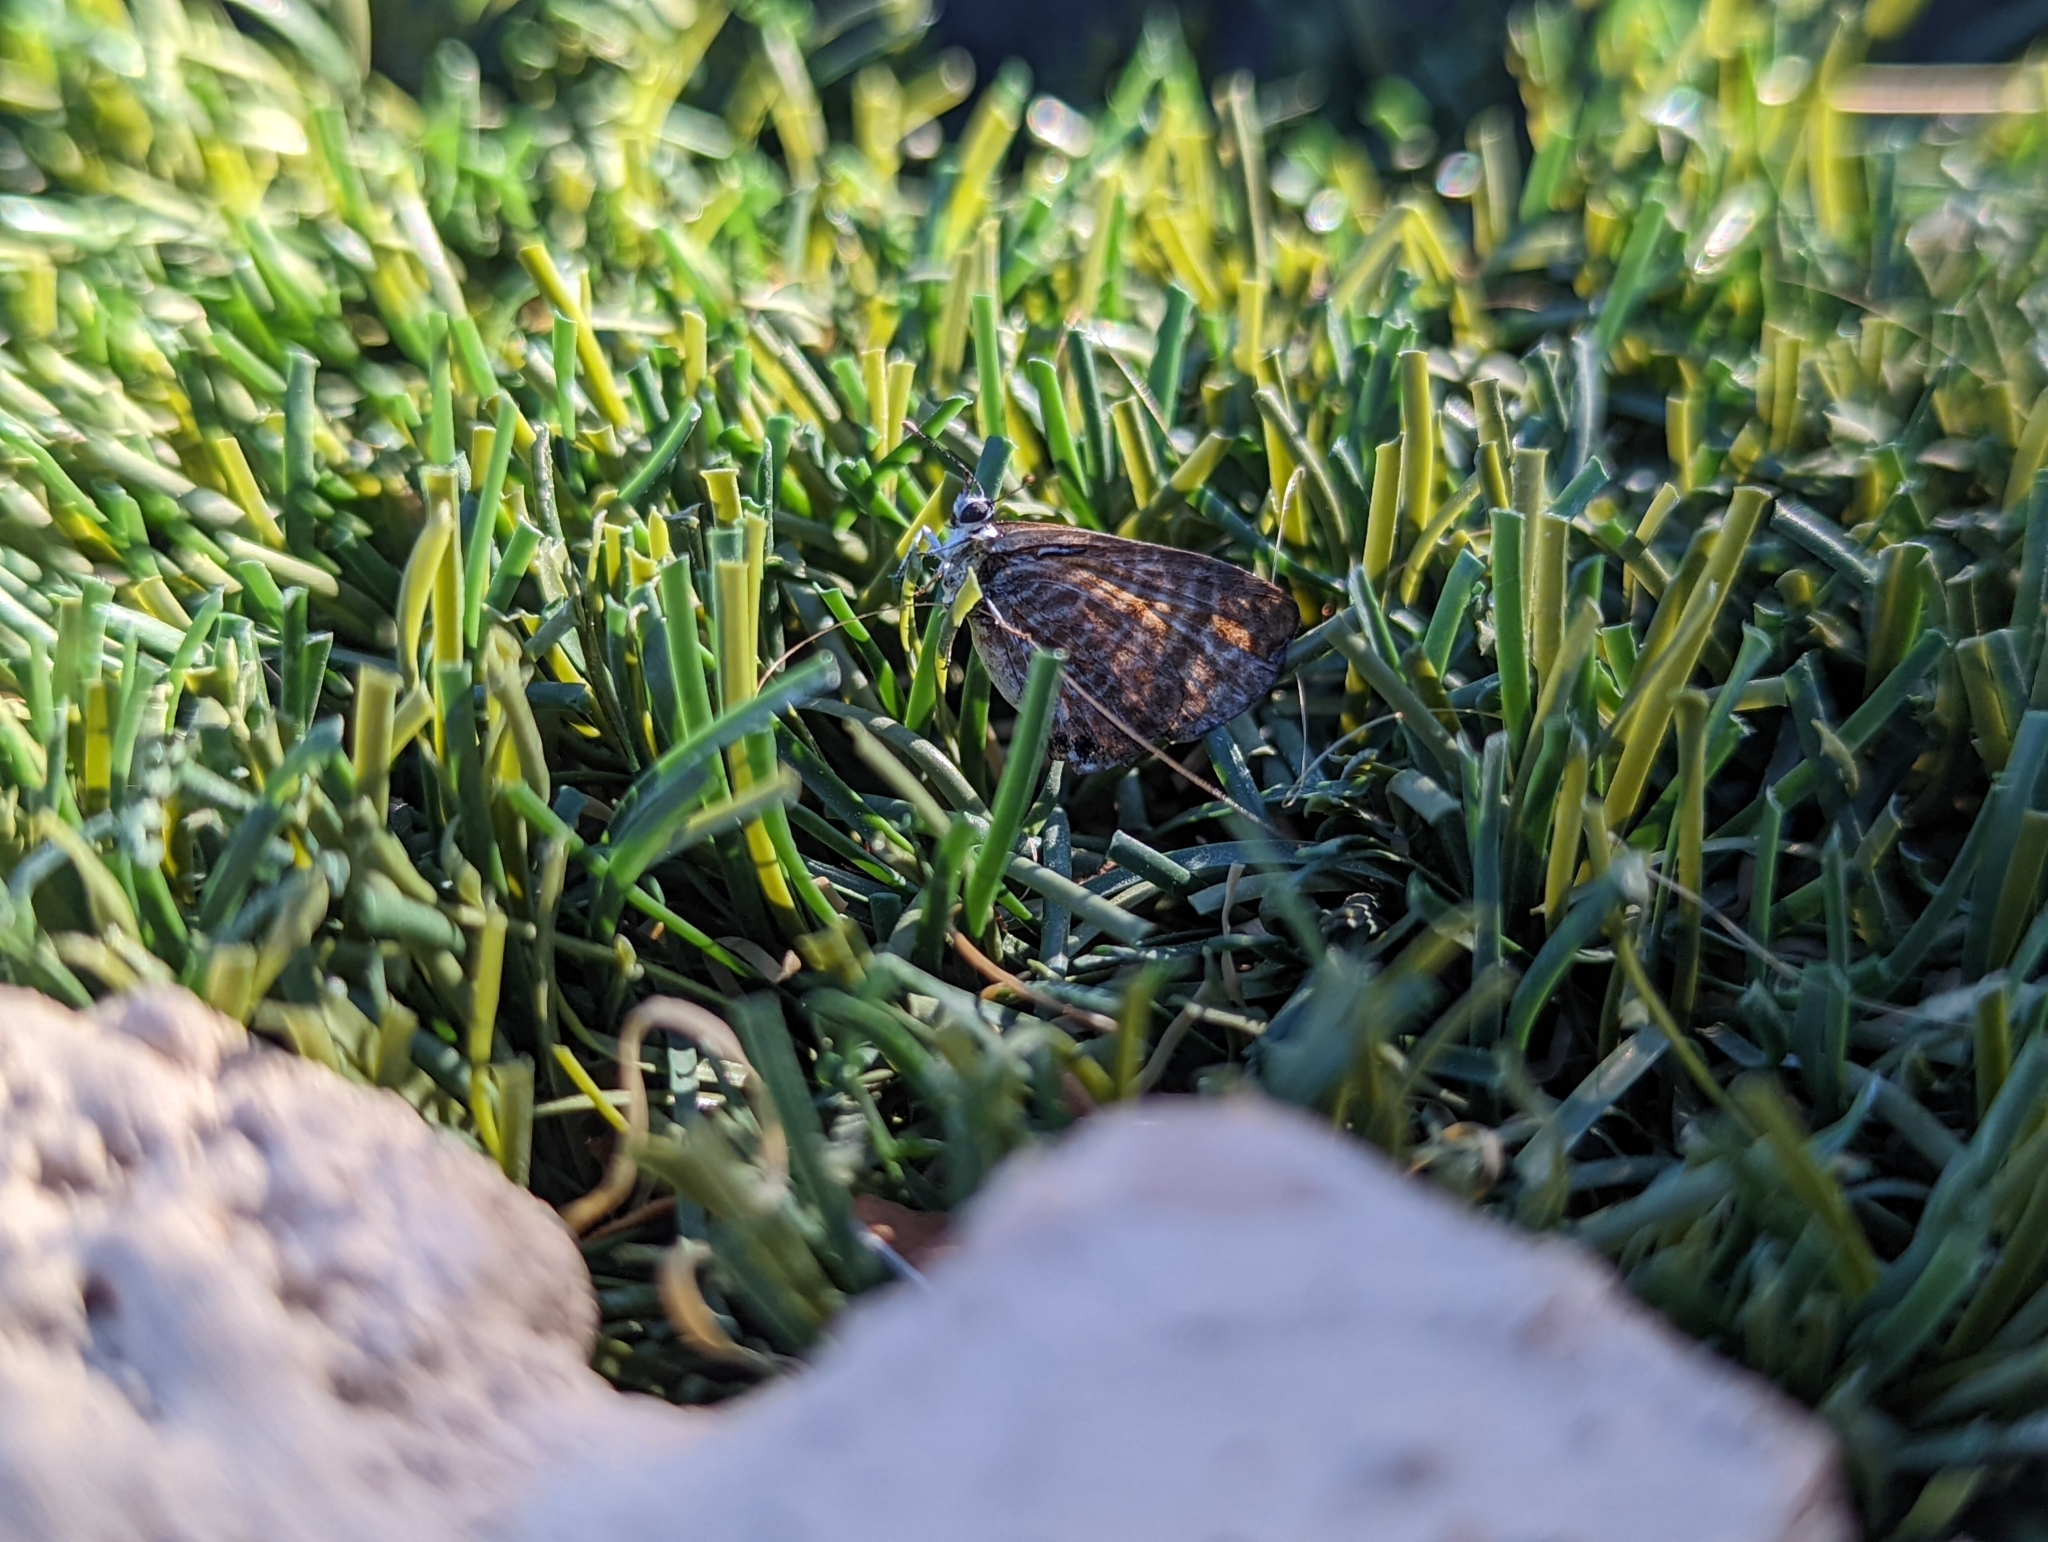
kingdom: Animalia
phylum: Arthropoda
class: Insecta
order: Lepidoptera
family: Lycaenidae
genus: Leptotes
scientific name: Leptotes marina
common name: Marine blue
